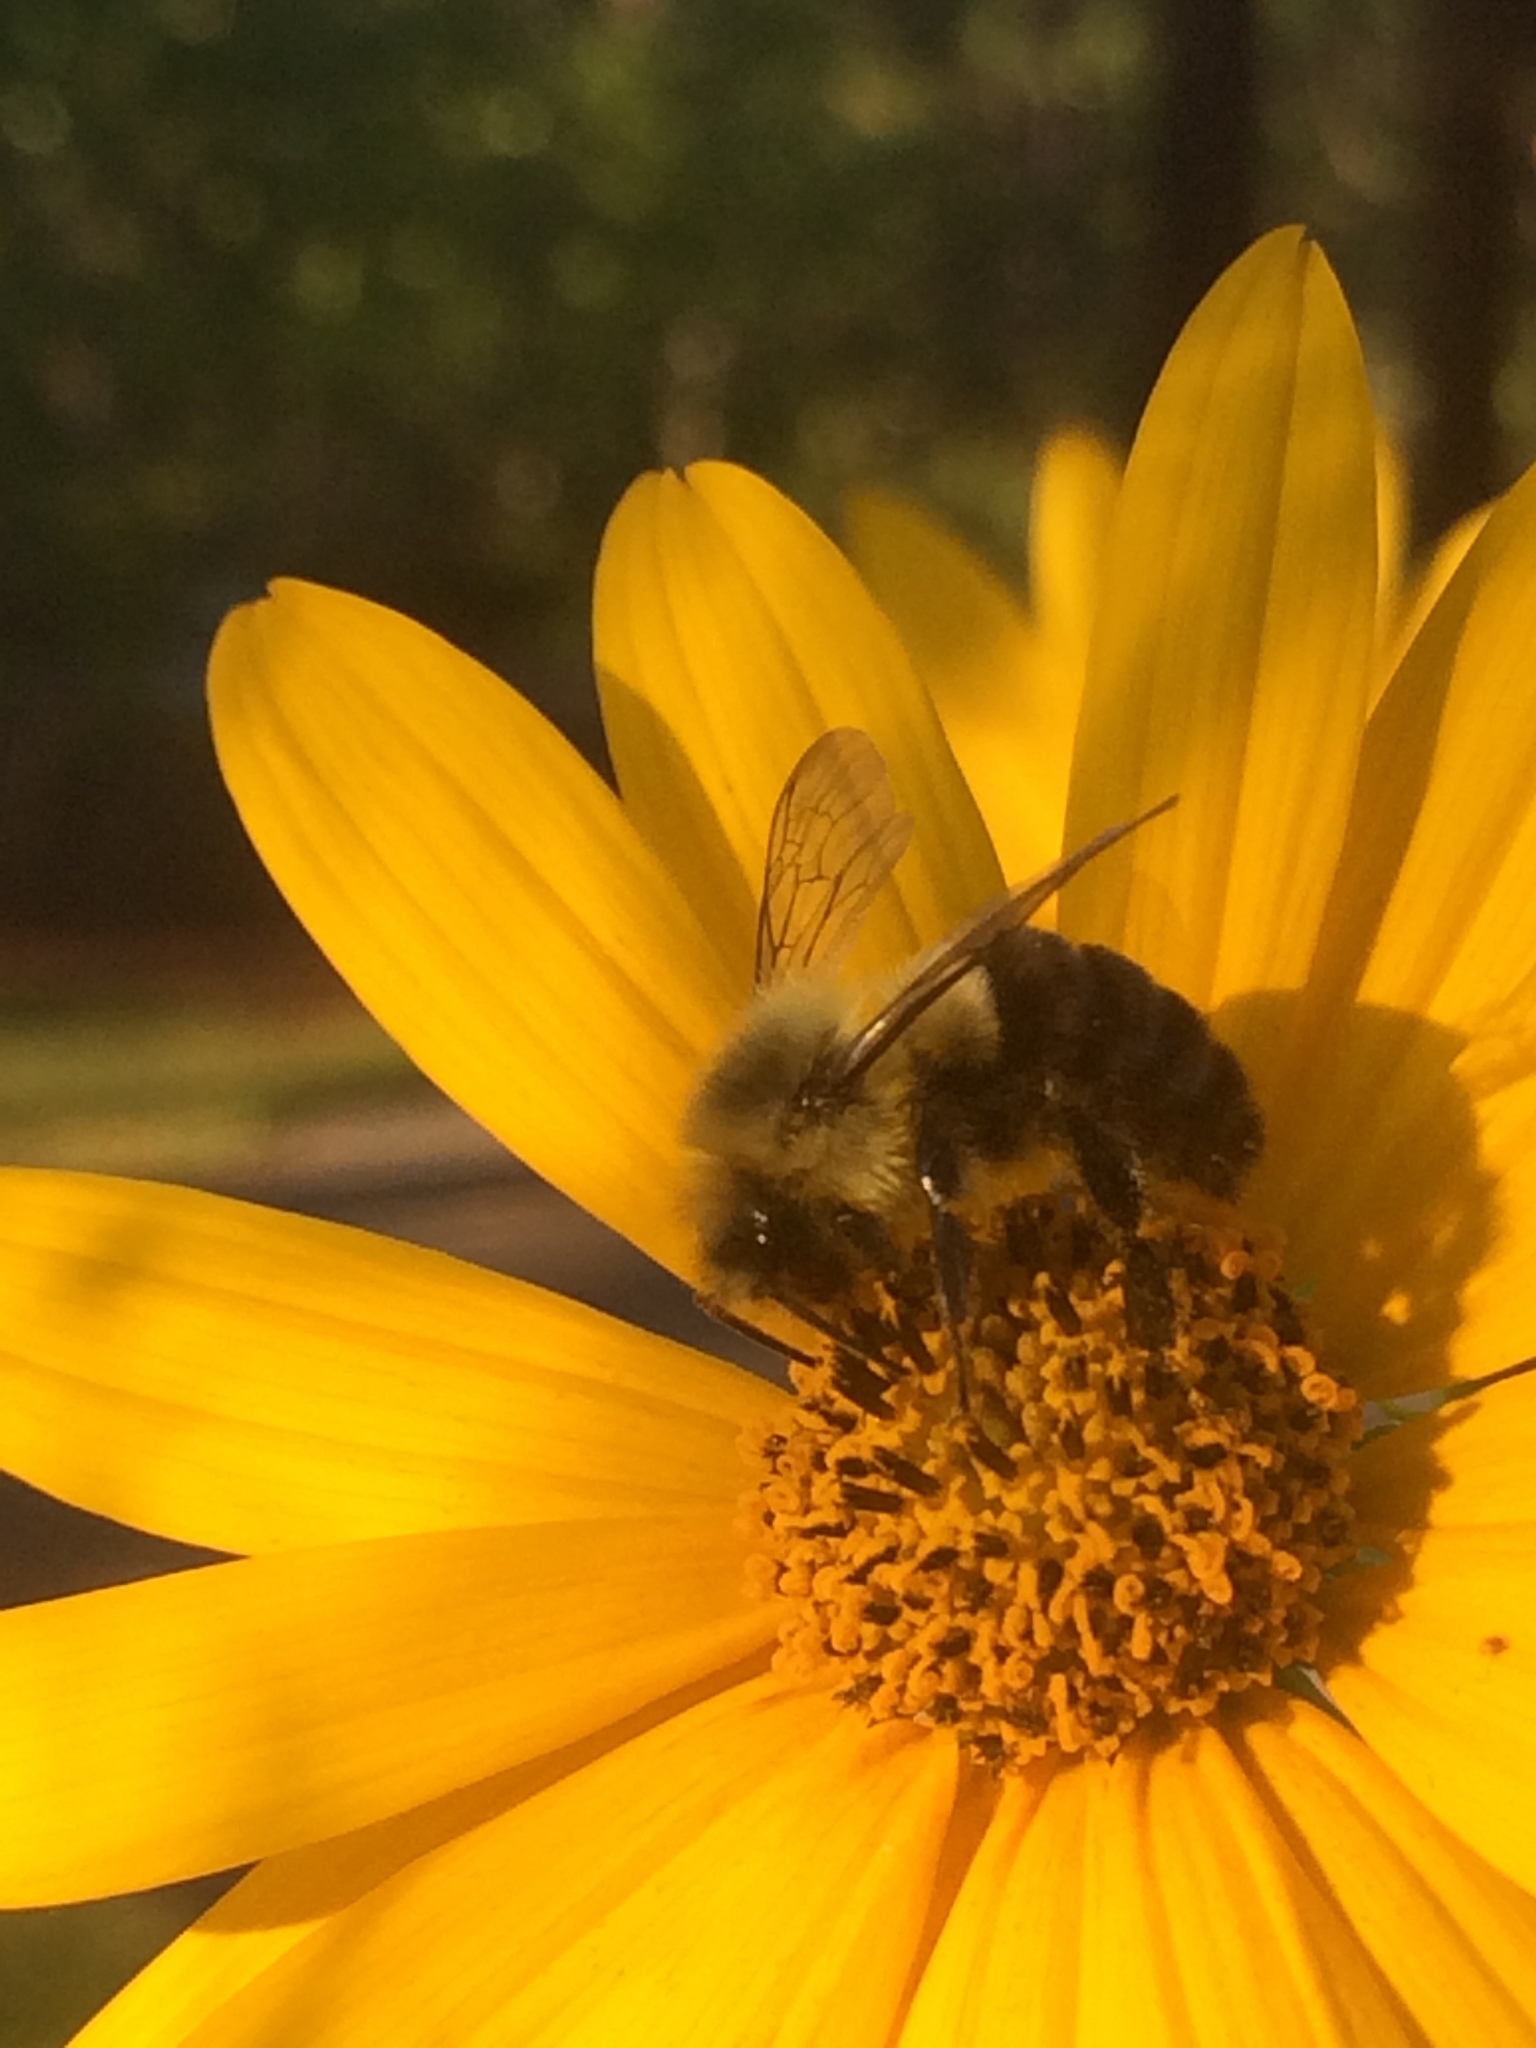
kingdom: Animalia
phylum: Arthropoda
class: Insecta
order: Hymenoptera
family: Apidae
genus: Bombus
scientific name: Bombus impatiens
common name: Common eastern bumble bee
